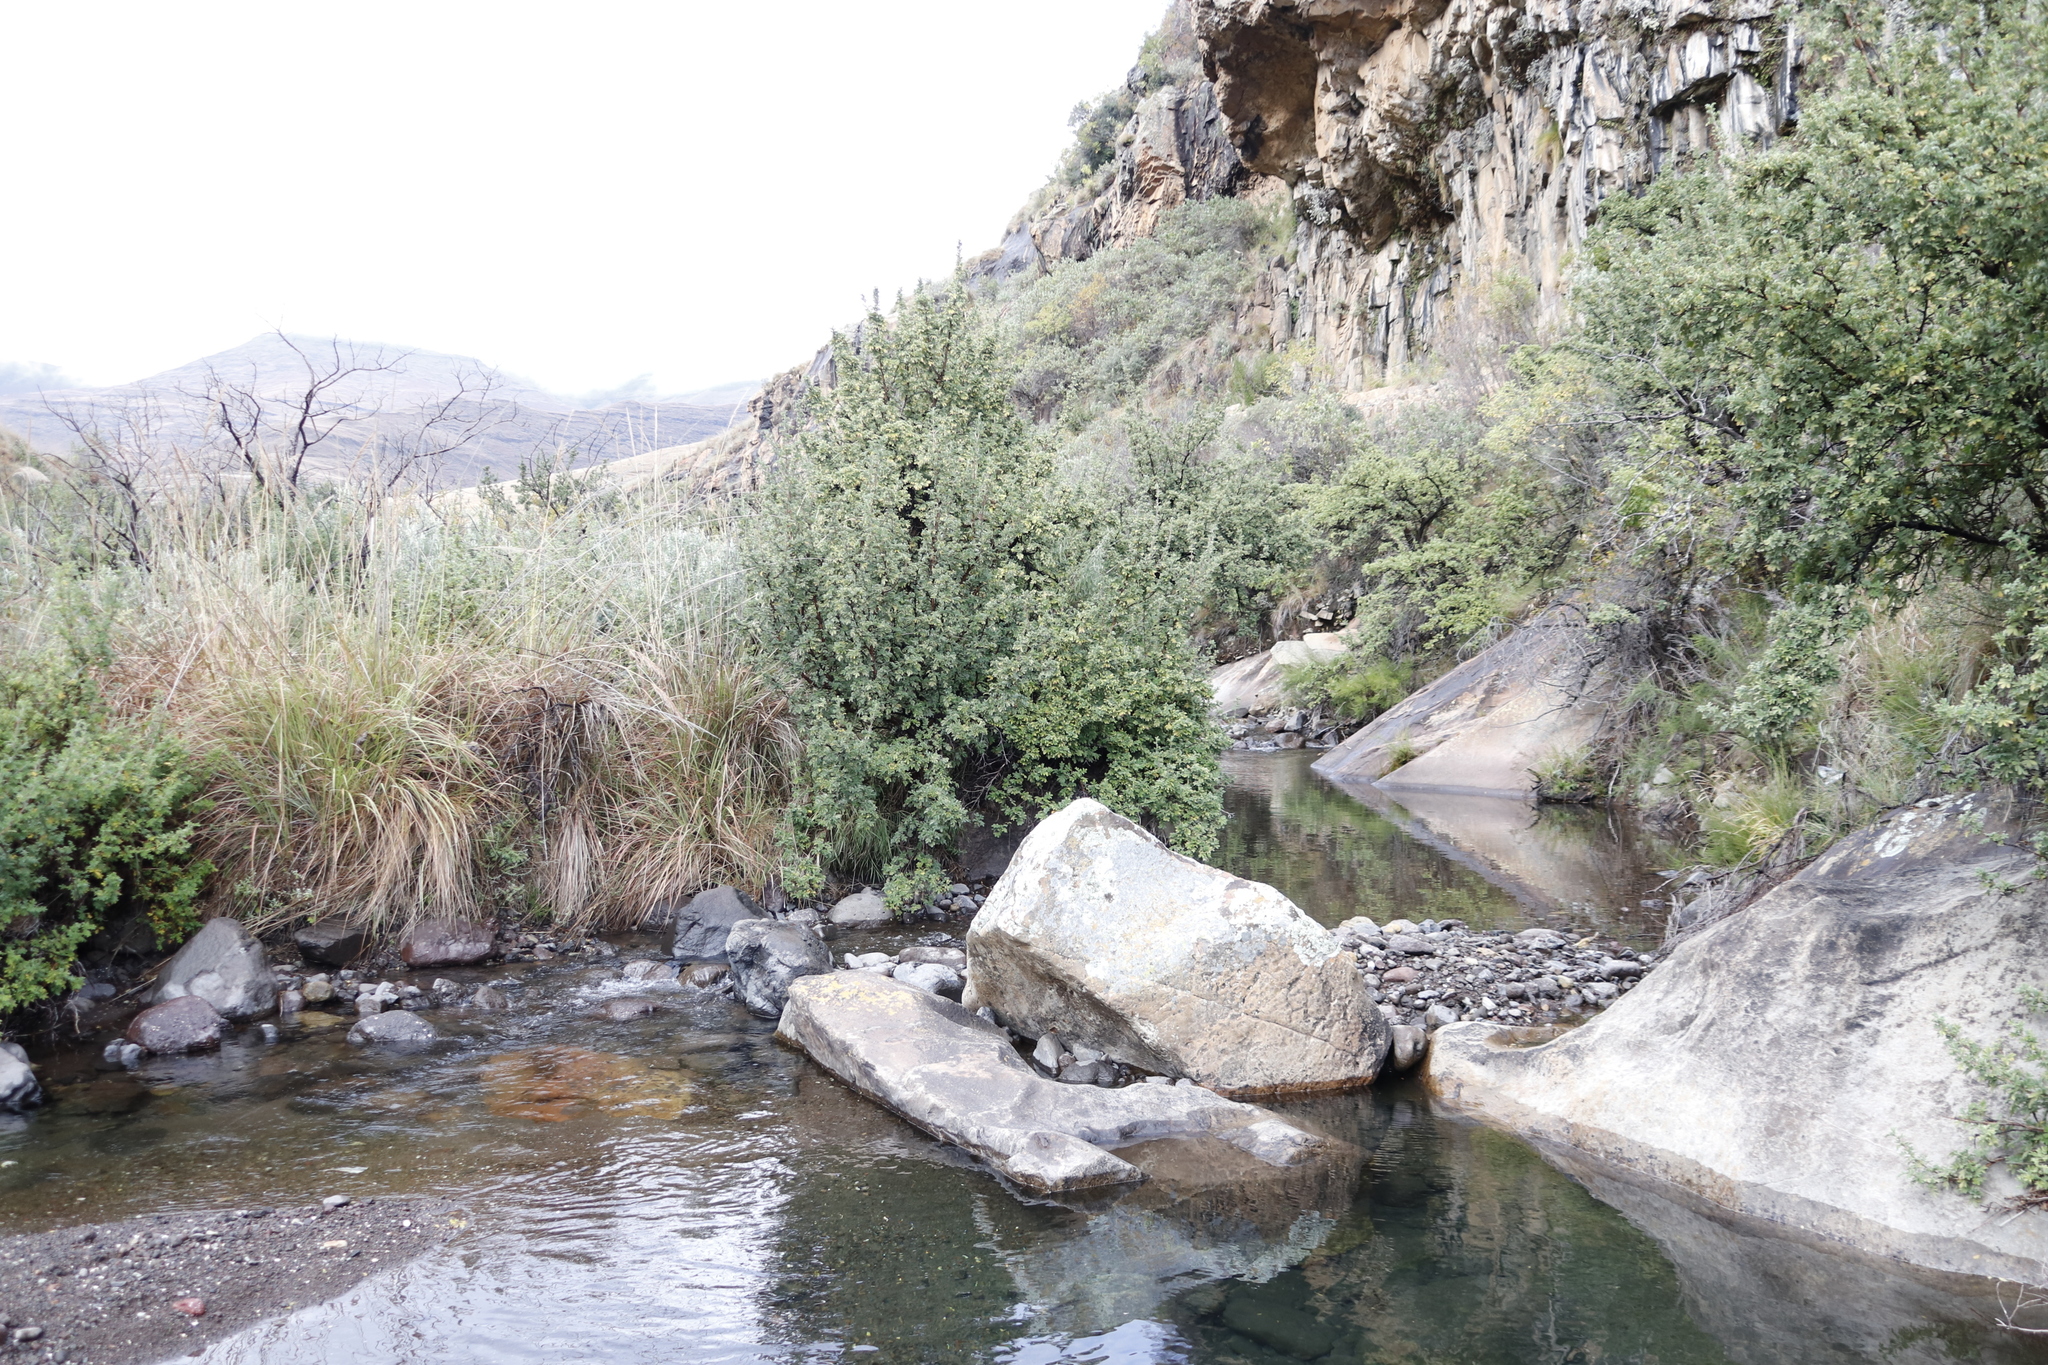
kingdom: Plantae
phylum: Tracheophyta
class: Magnoliopsida
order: Rosales
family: Rosaceae
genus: Leucosidea
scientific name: Leucosidea sericea
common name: Oldwood
